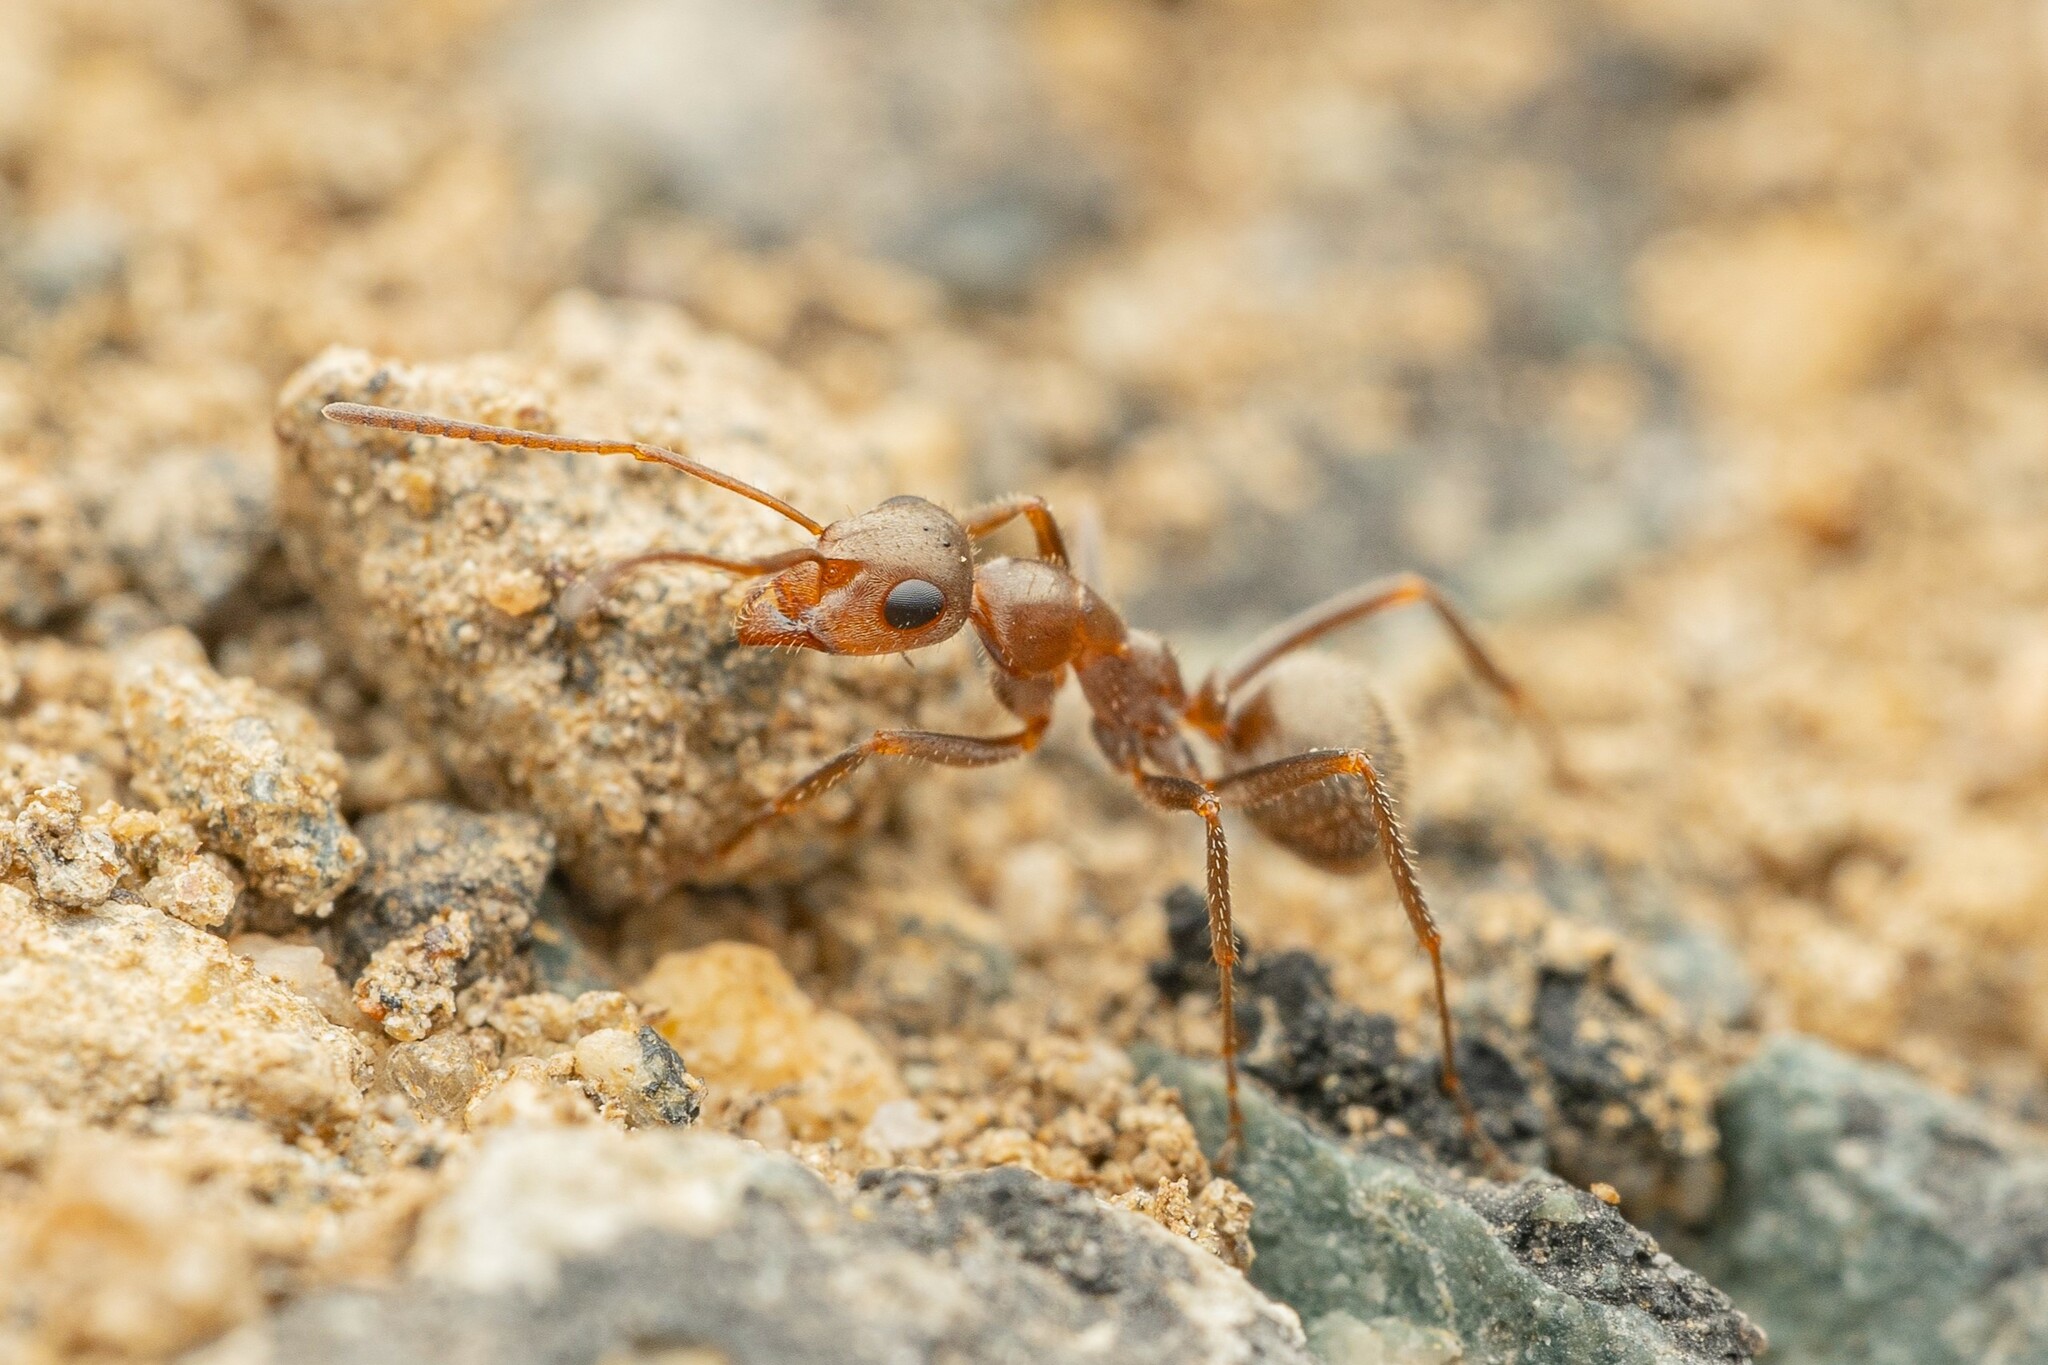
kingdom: Animalia
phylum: Arthropoda
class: Insecta
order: Hymenoptera
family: Formicidae
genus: Formica
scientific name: Formica francoeuri
